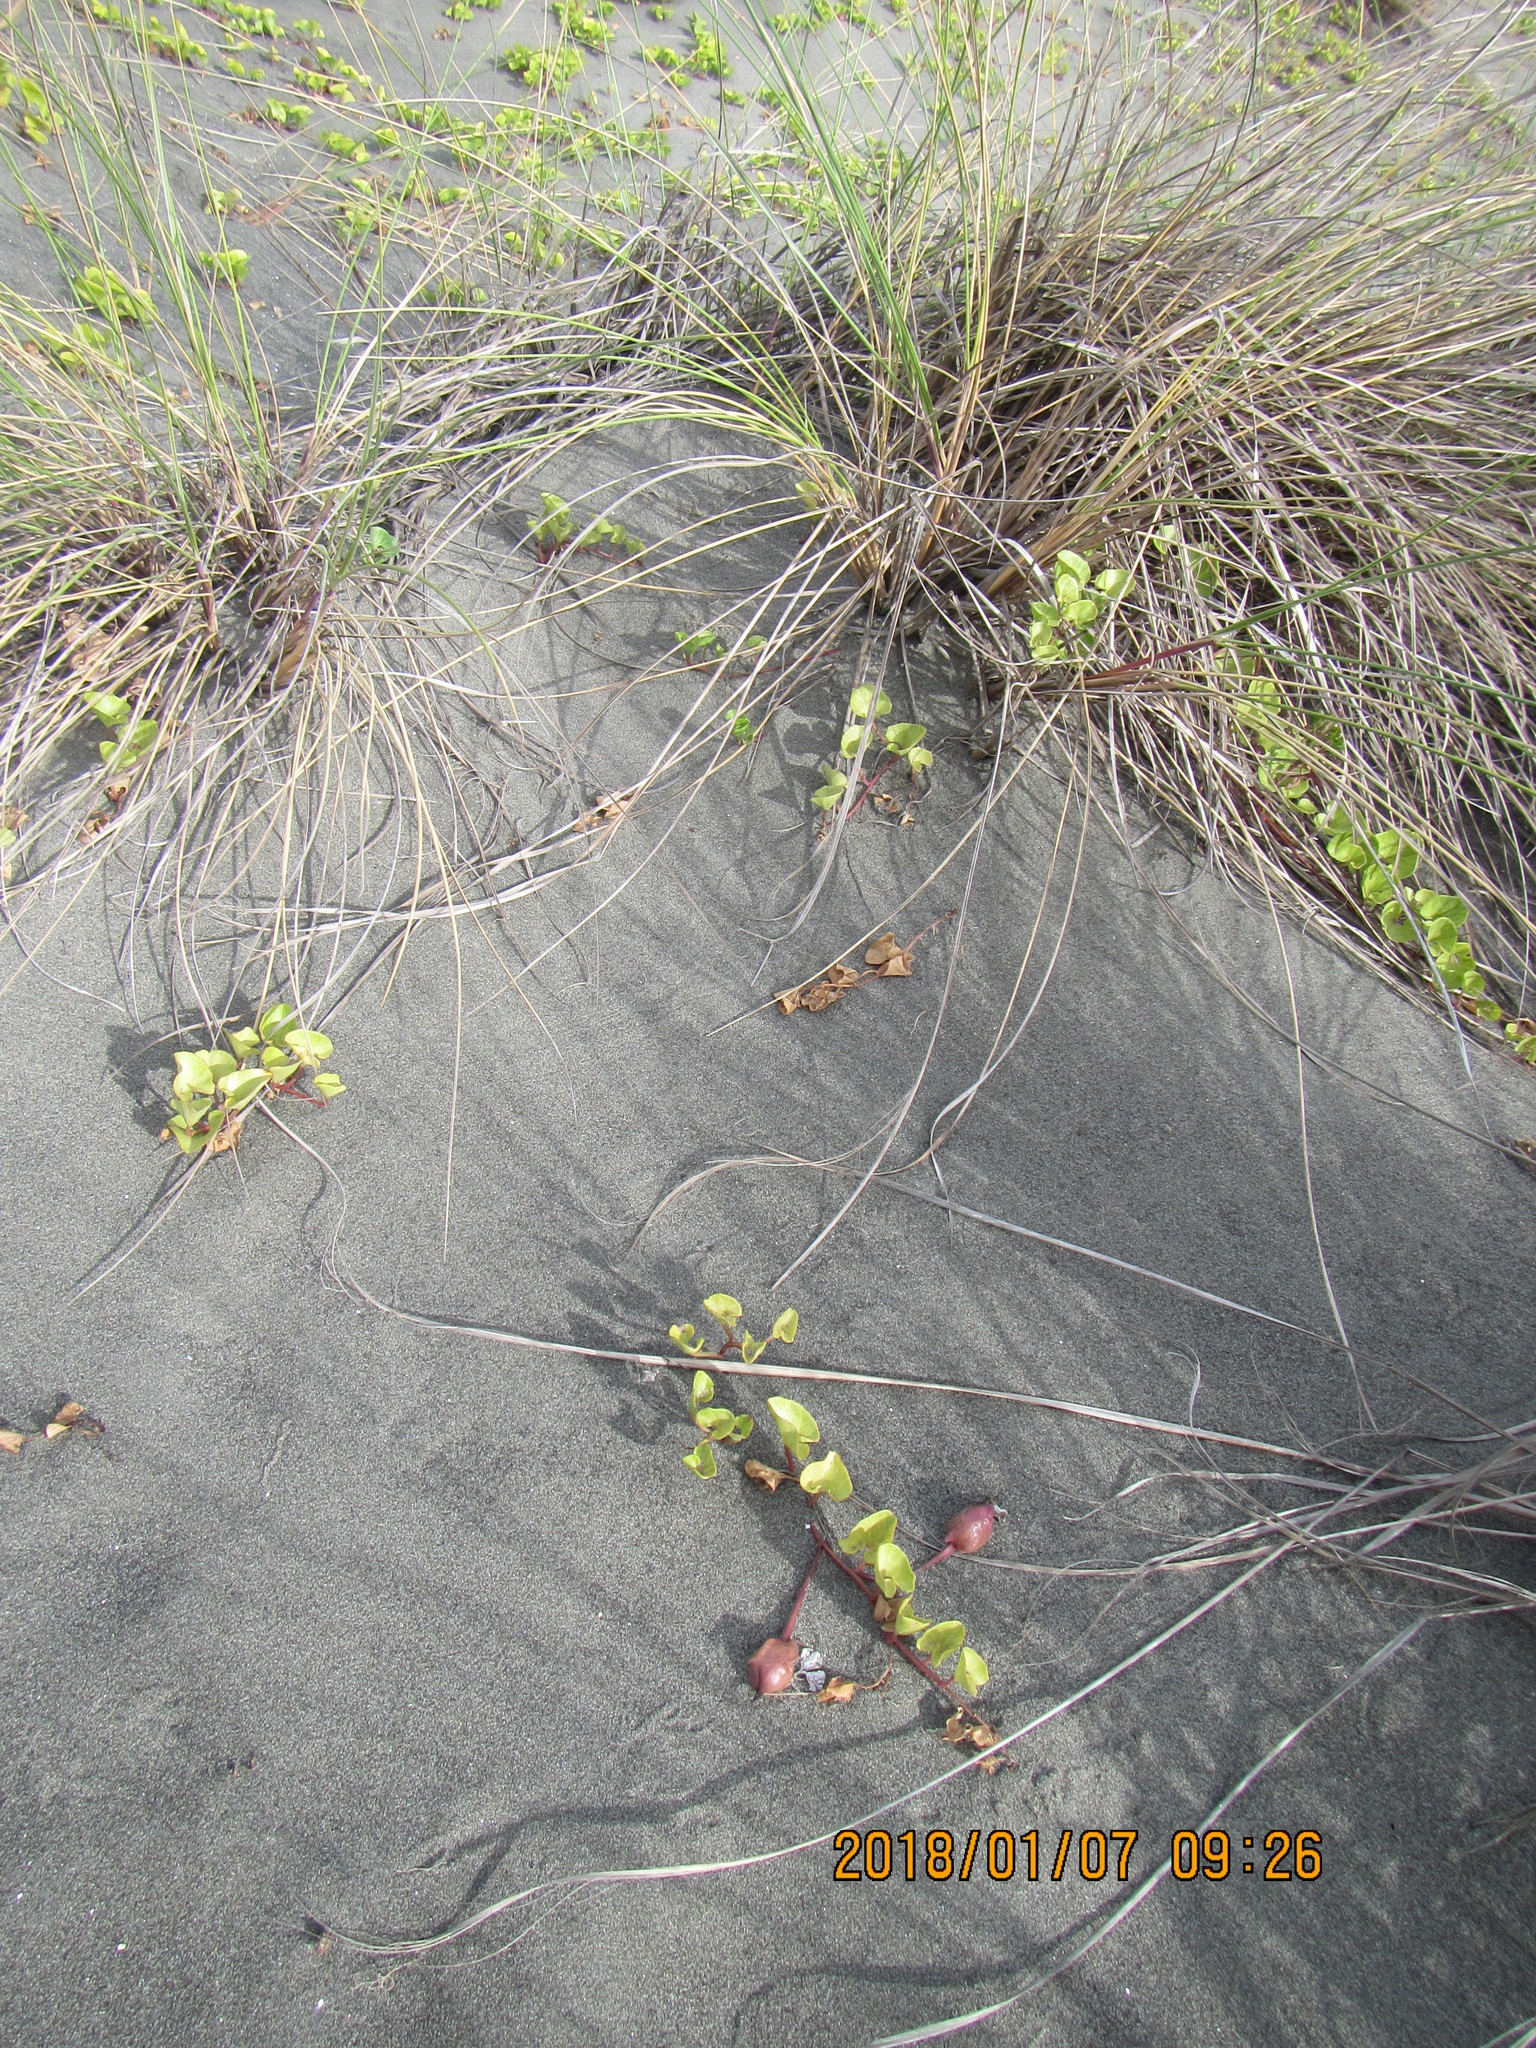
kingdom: Plantae
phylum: Tracheophyta
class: Magnoliopsida
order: Solanales
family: Convolvulaceae
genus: Calystegia
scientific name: Calystegia soldanella
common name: Sea bindweed
